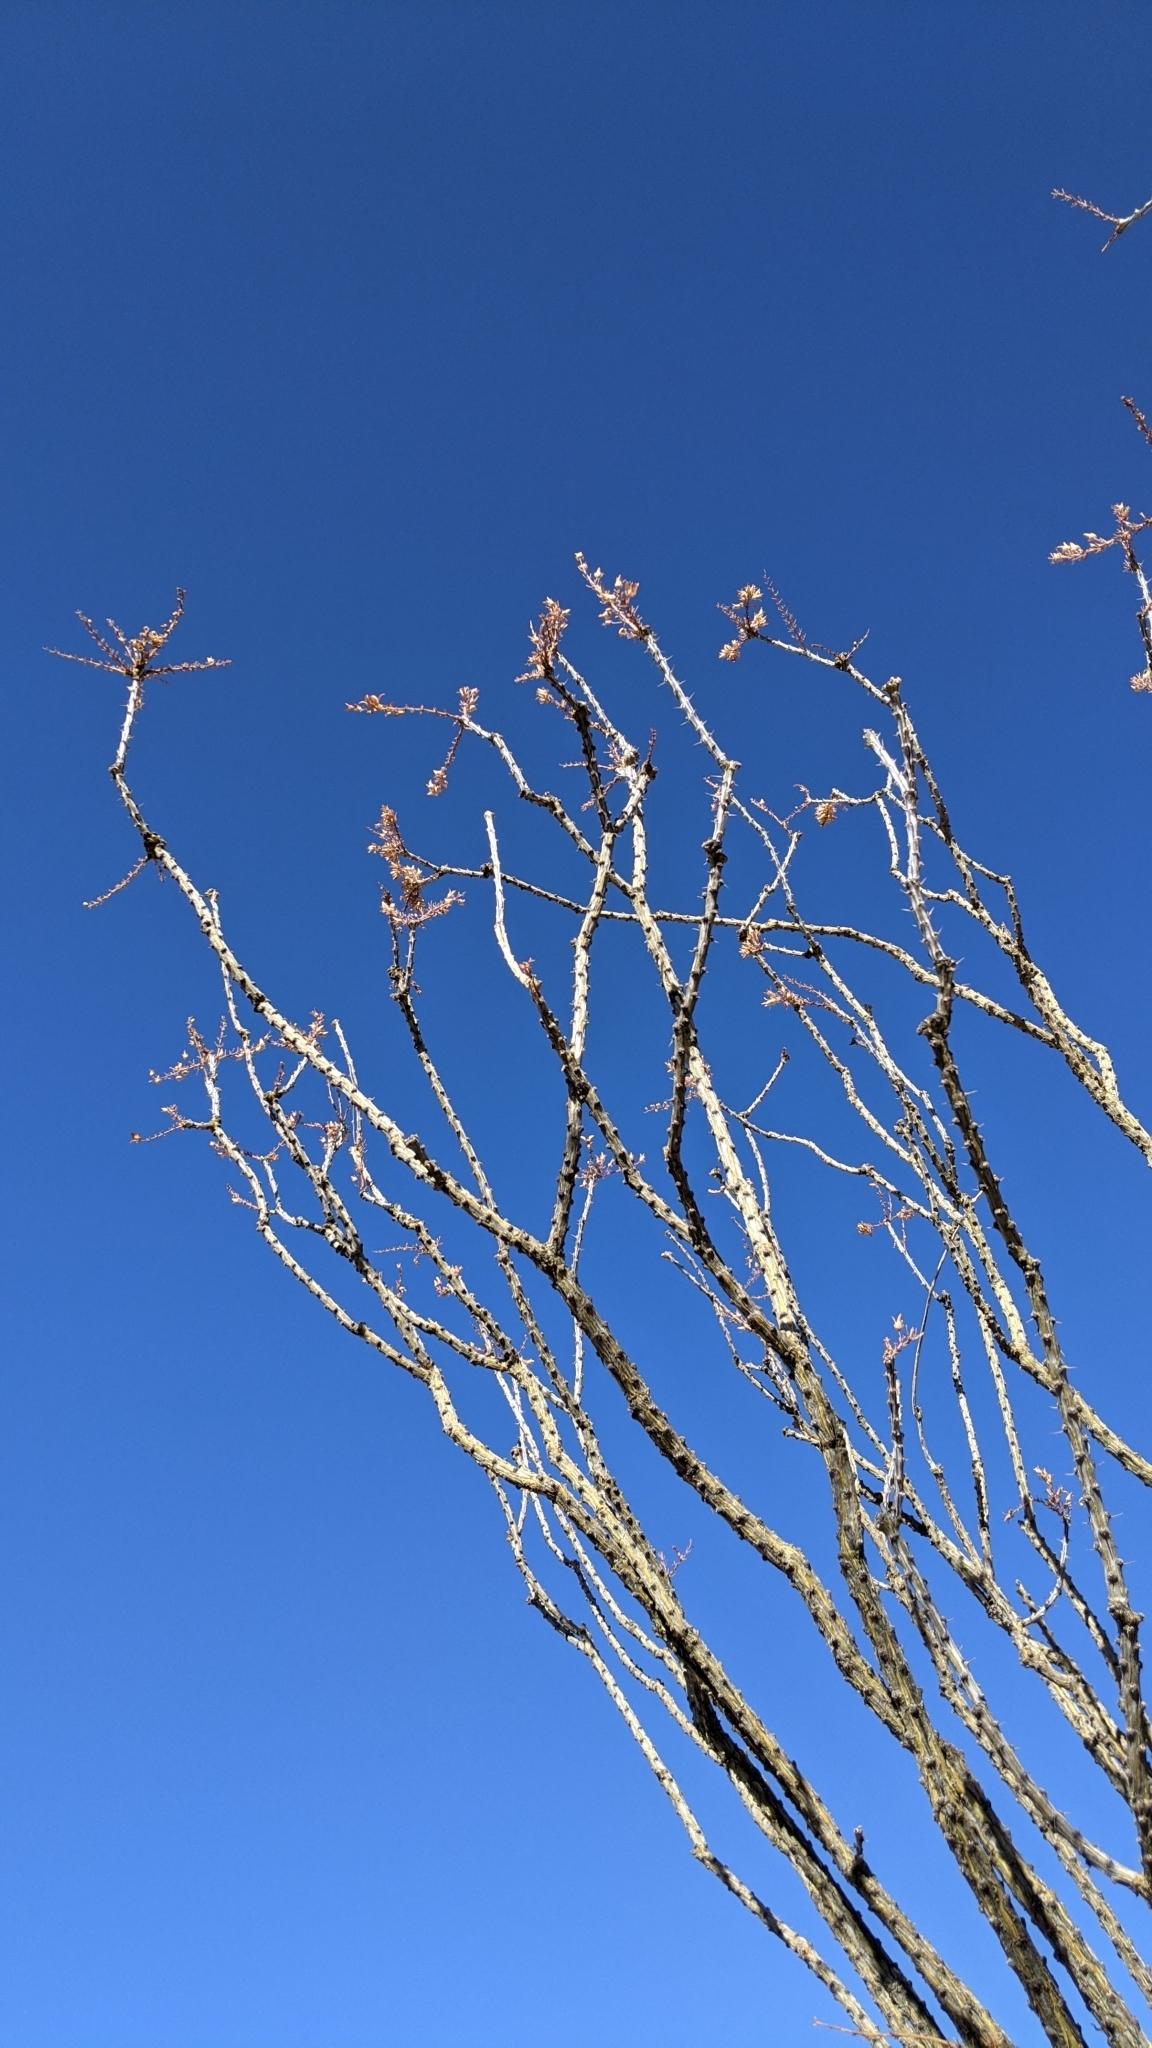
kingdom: Plantae
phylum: Tracheophyta
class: Magnoliopsida
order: Ericales
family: Fouquieriaceae
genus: Fouquieria
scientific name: Fouquieria splendens
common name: Vine-cactus
